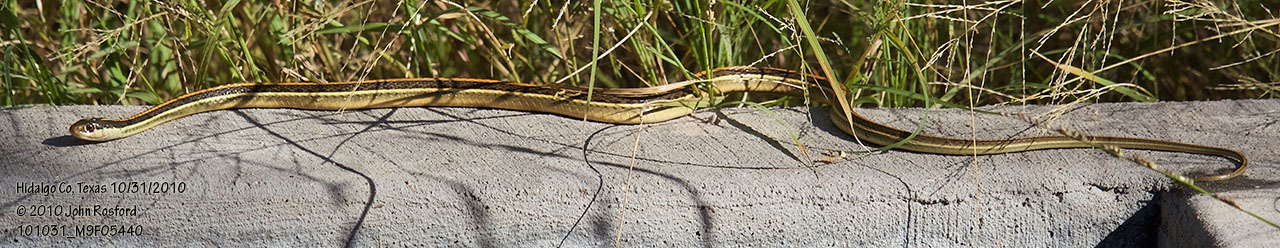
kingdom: Animalia
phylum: Chordata
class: Squamata
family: Colubridae
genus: Thamnophis
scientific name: Thamnophis proximus
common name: Western ribbon snake
